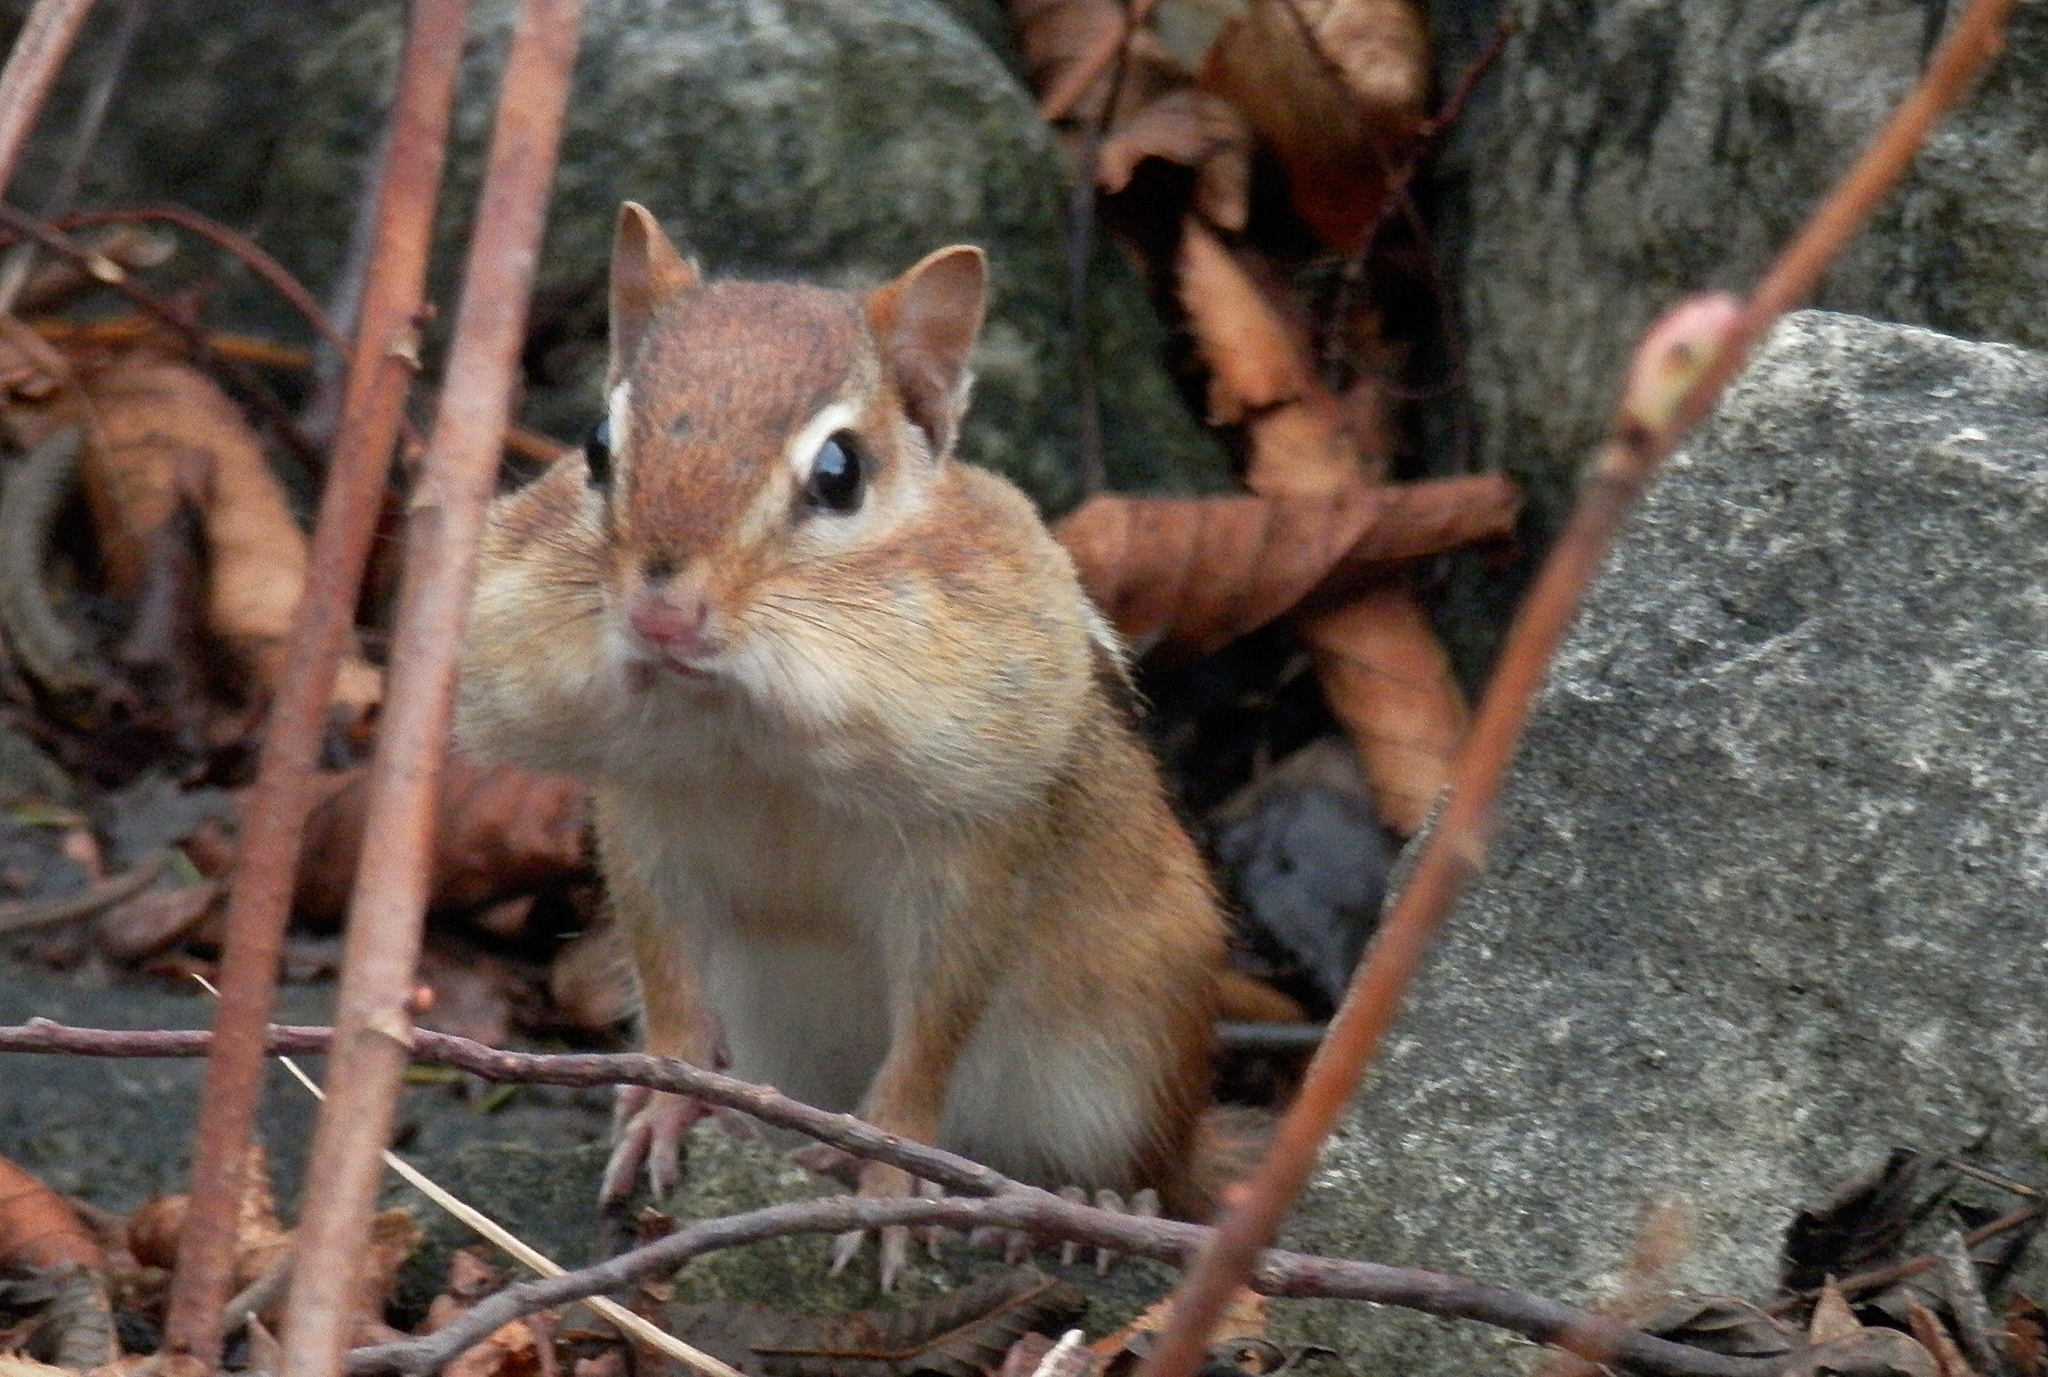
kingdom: Animalia
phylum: Chordata
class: Mammalia
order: Rodentia
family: Sciuridae
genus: Tamias
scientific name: Tamias striatus
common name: Eastern chipmunk
